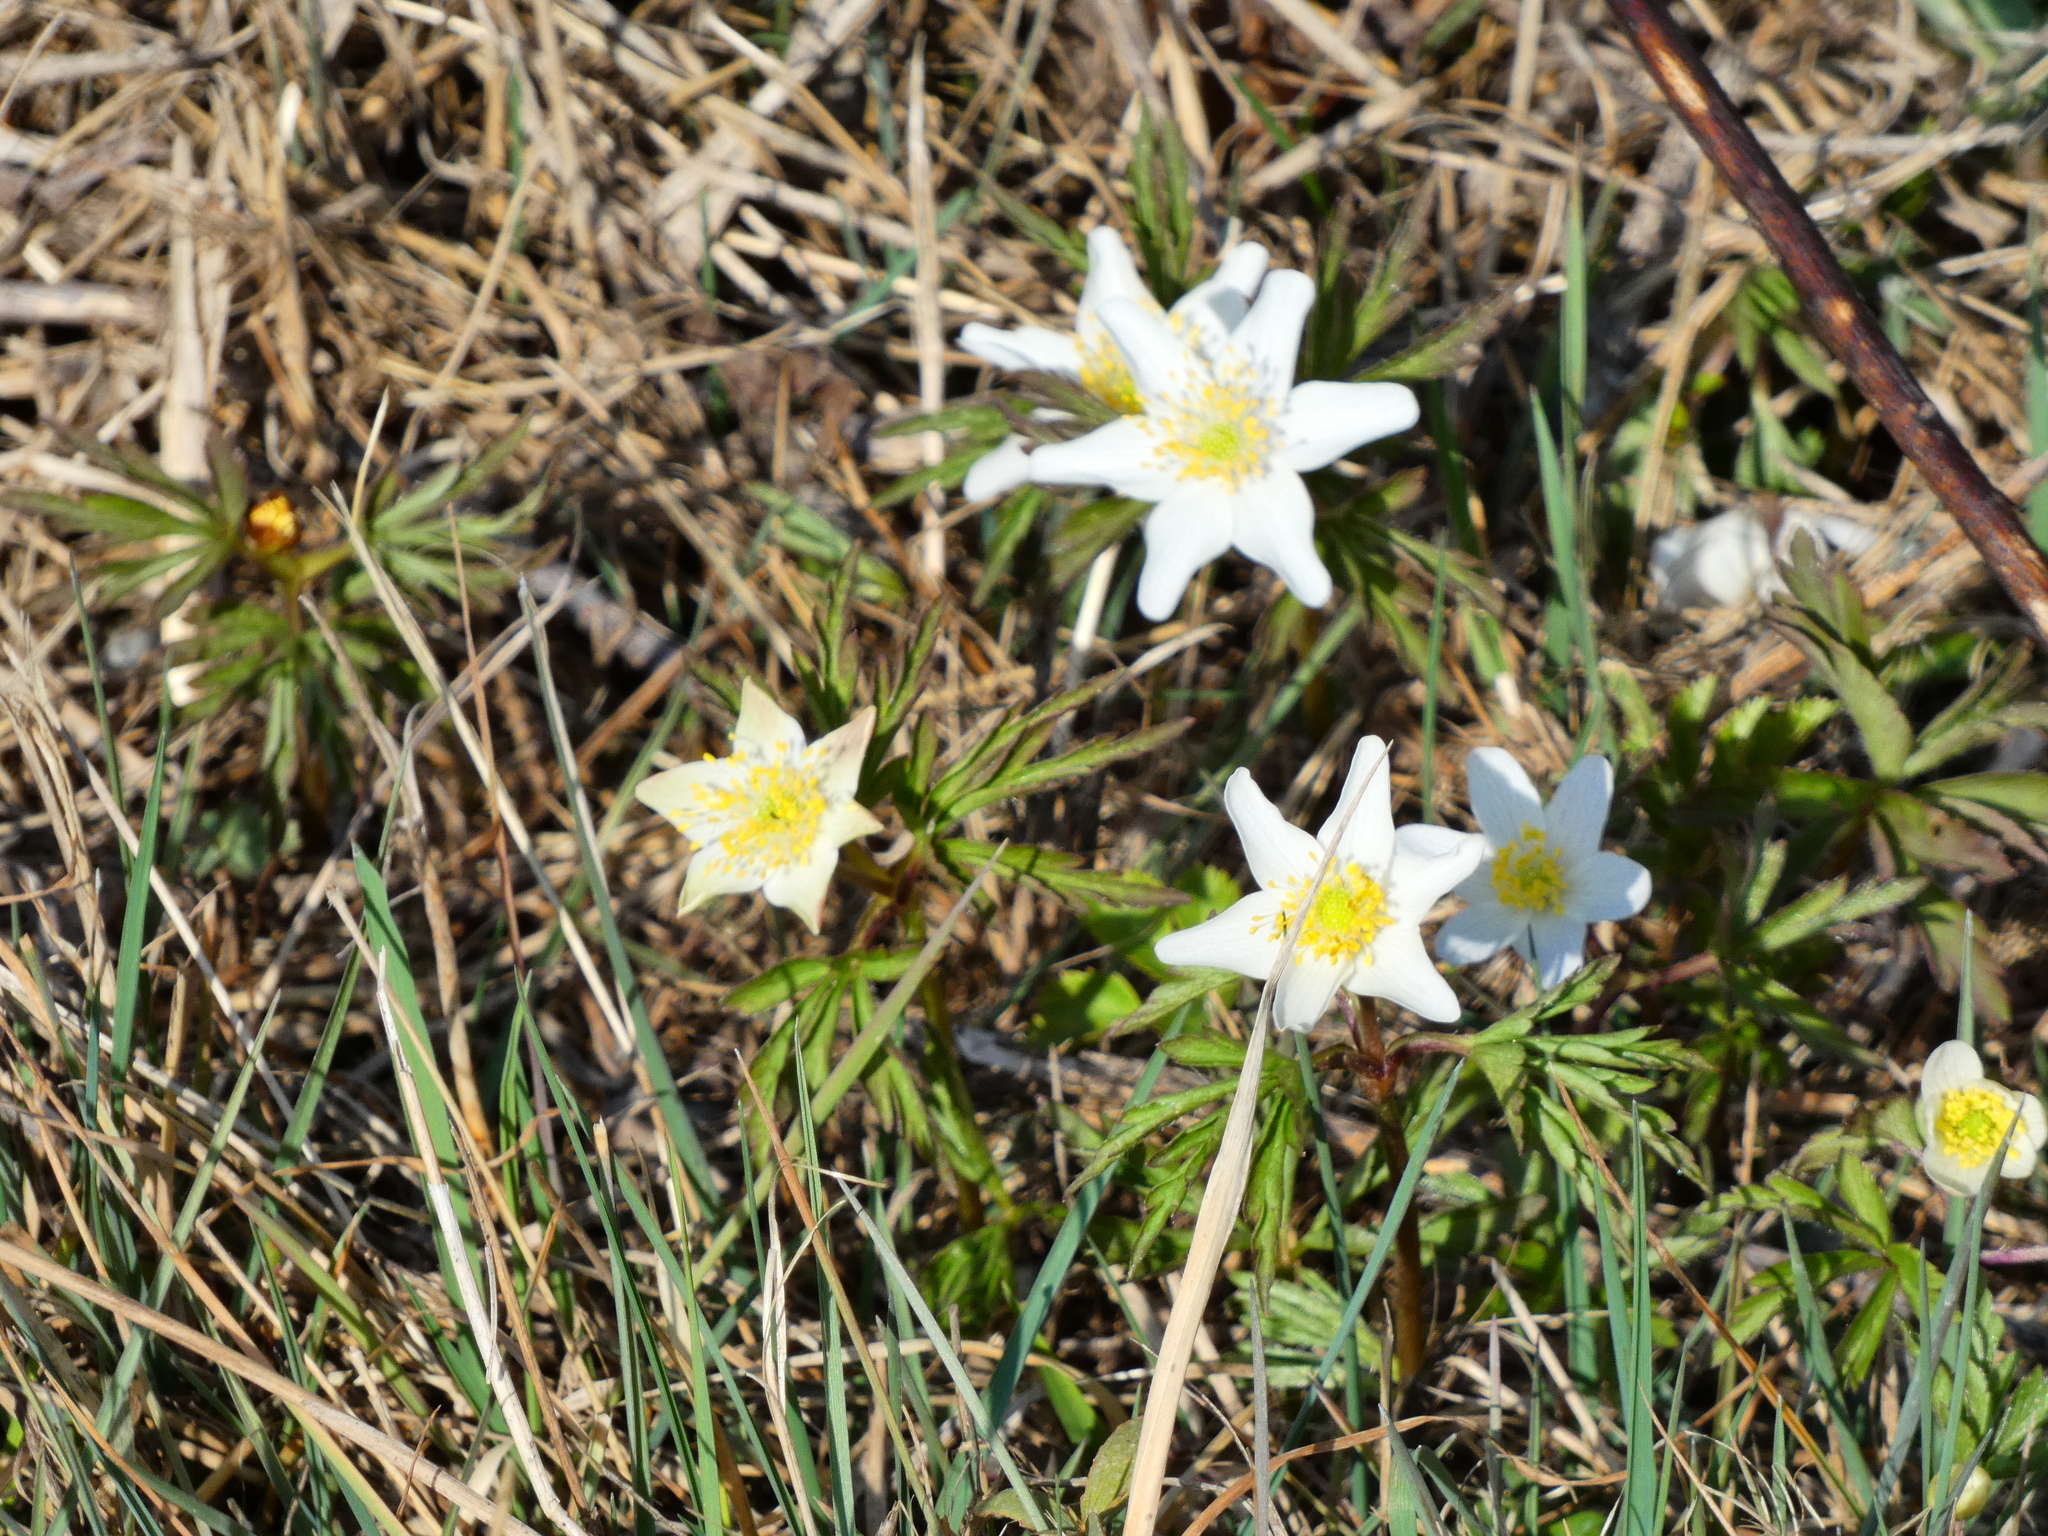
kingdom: Plantae
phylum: Tracheophyta
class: Magnoliopsida
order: Ranunculales
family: Ranunculaceae
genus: Anemone
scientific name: Anemone nemorosa
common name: Wood anemone
